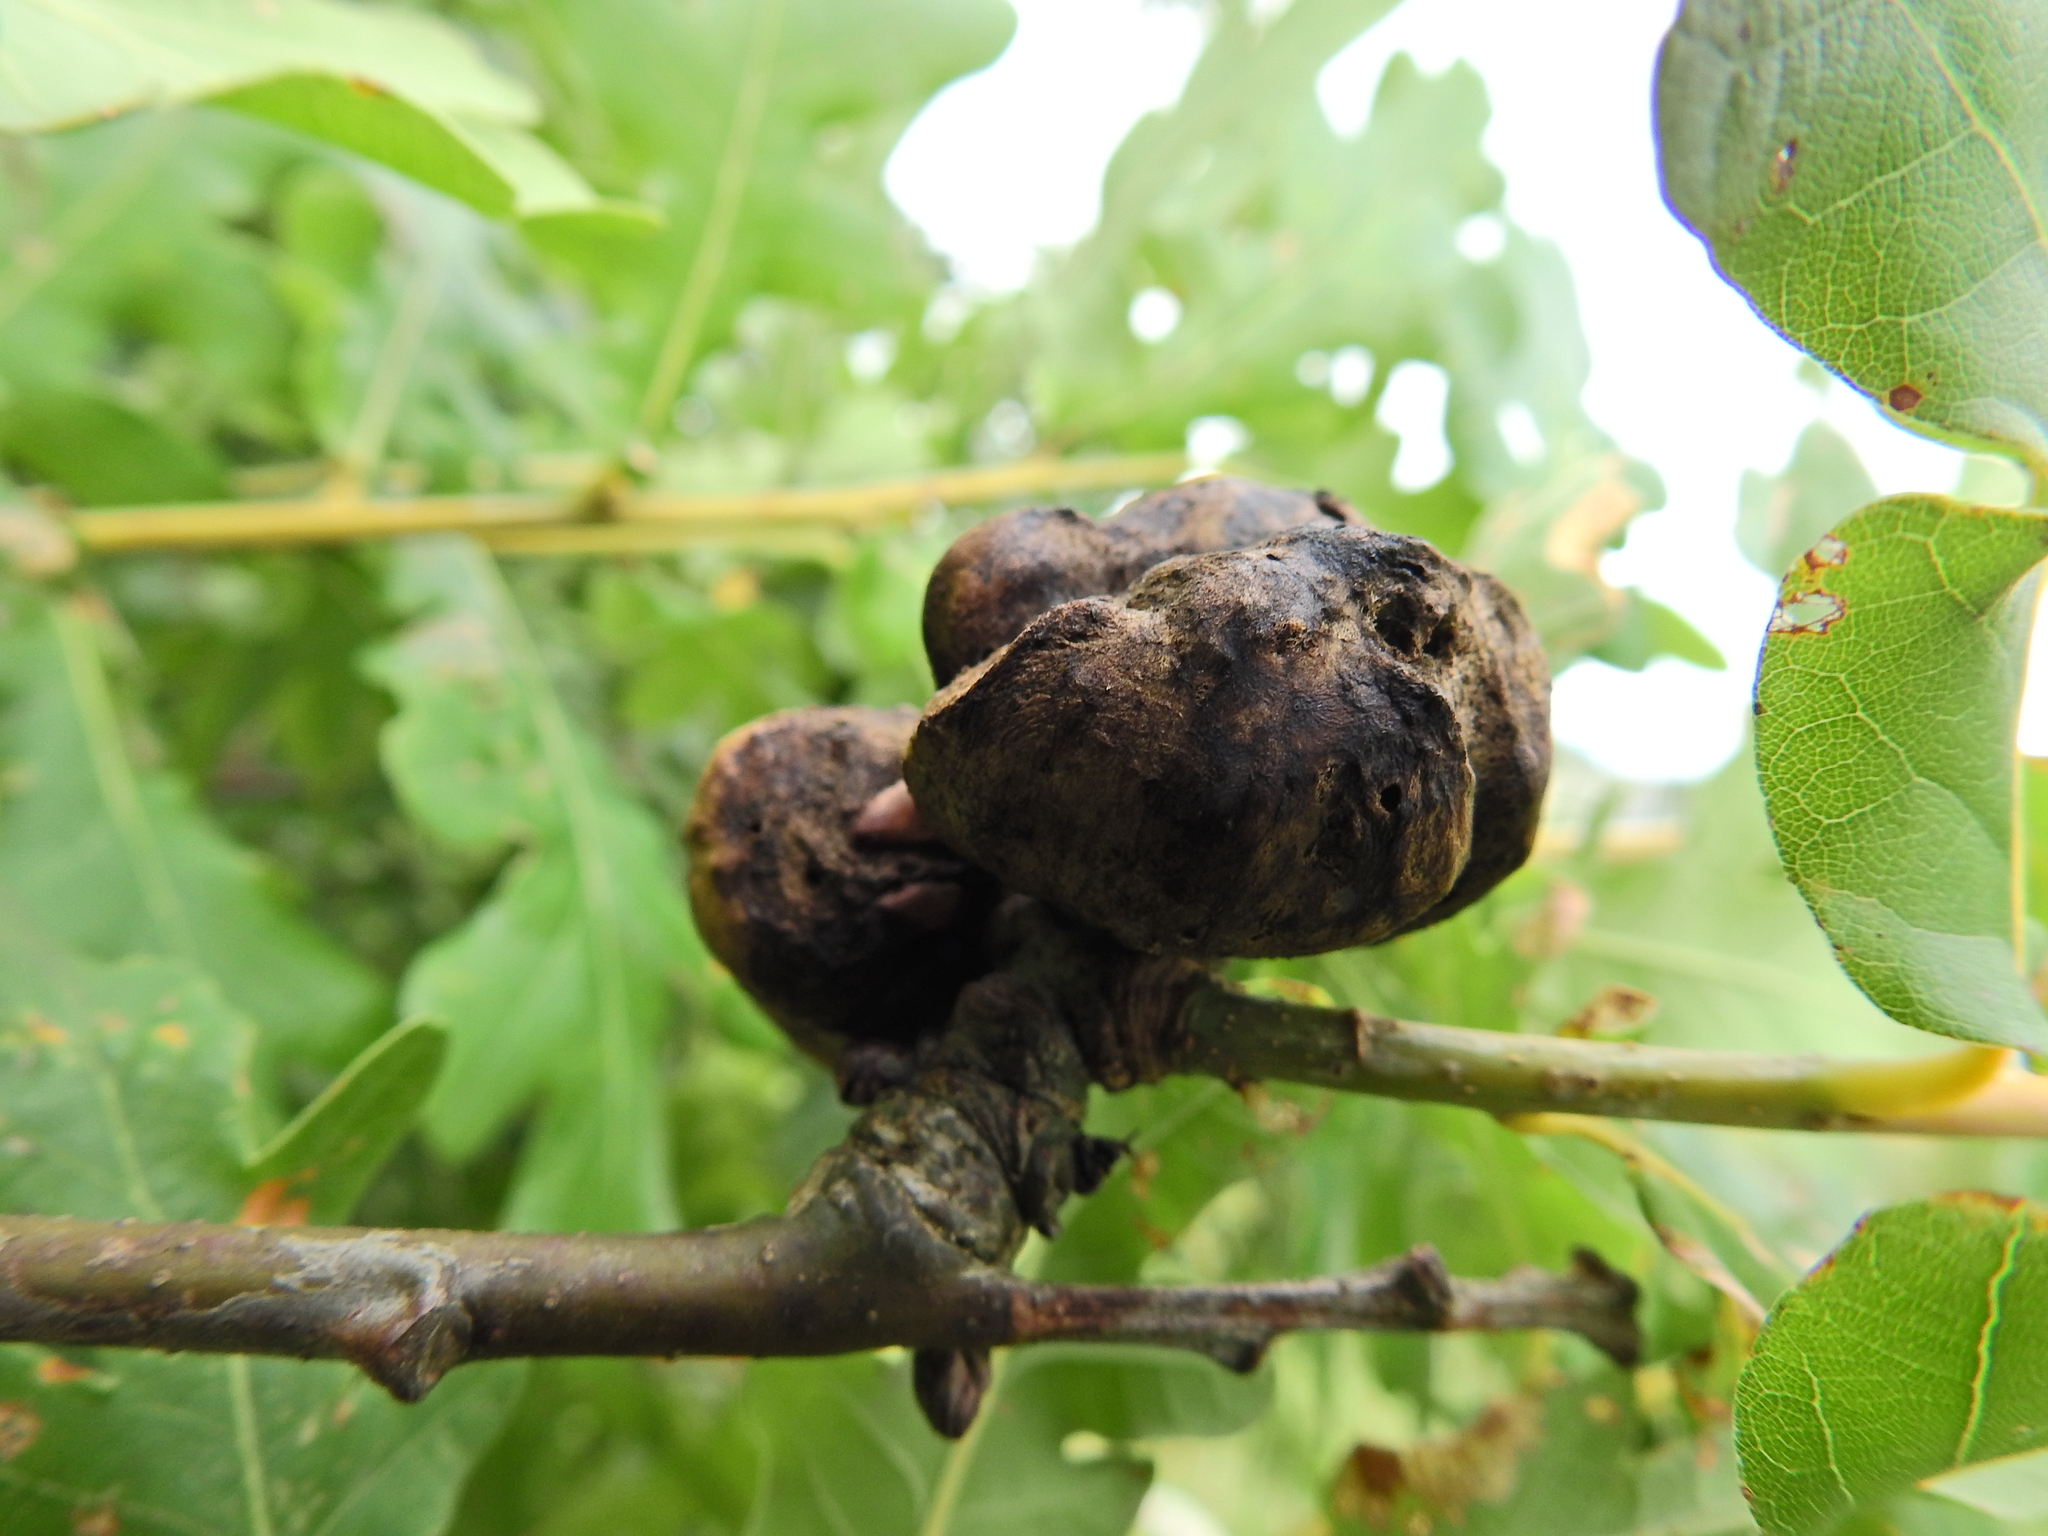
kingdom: Animalia
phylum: Arthropoda
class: Insecta
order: Hymenoptera
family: Cynipidae
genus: Biorhiza
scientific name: Biorhiza pallida
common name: Oak apple
